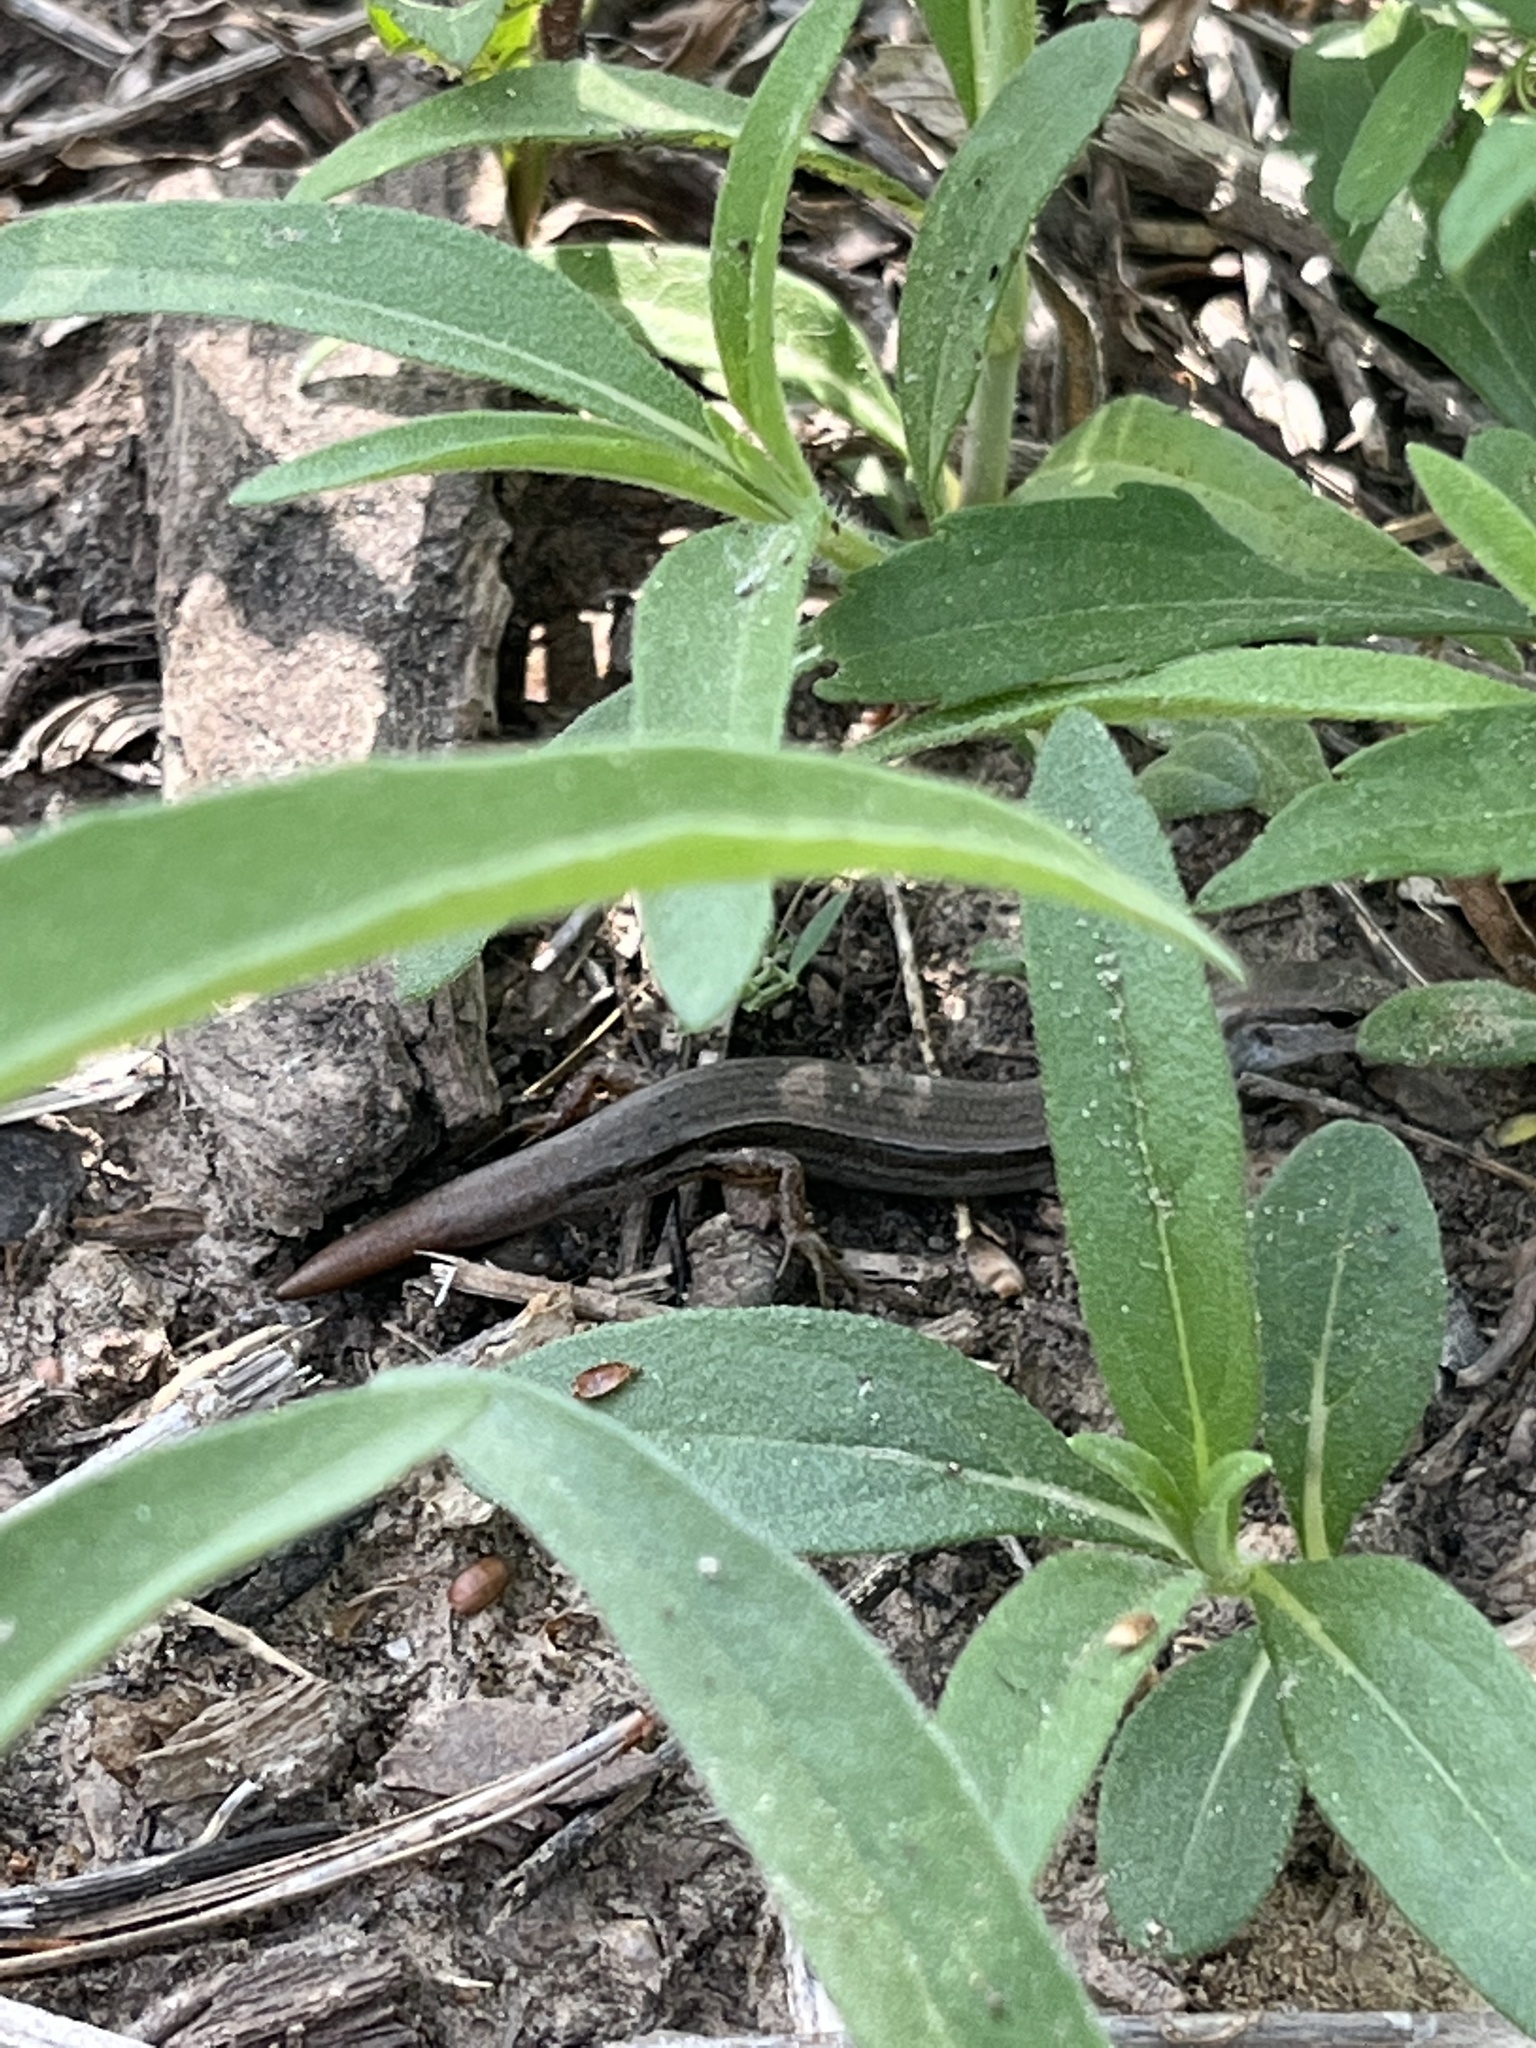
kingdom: Animalia
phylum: Chordata
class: Squamata
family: Scincidae
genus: Scincella
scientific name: Scincella lateralis
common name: Ground skink
